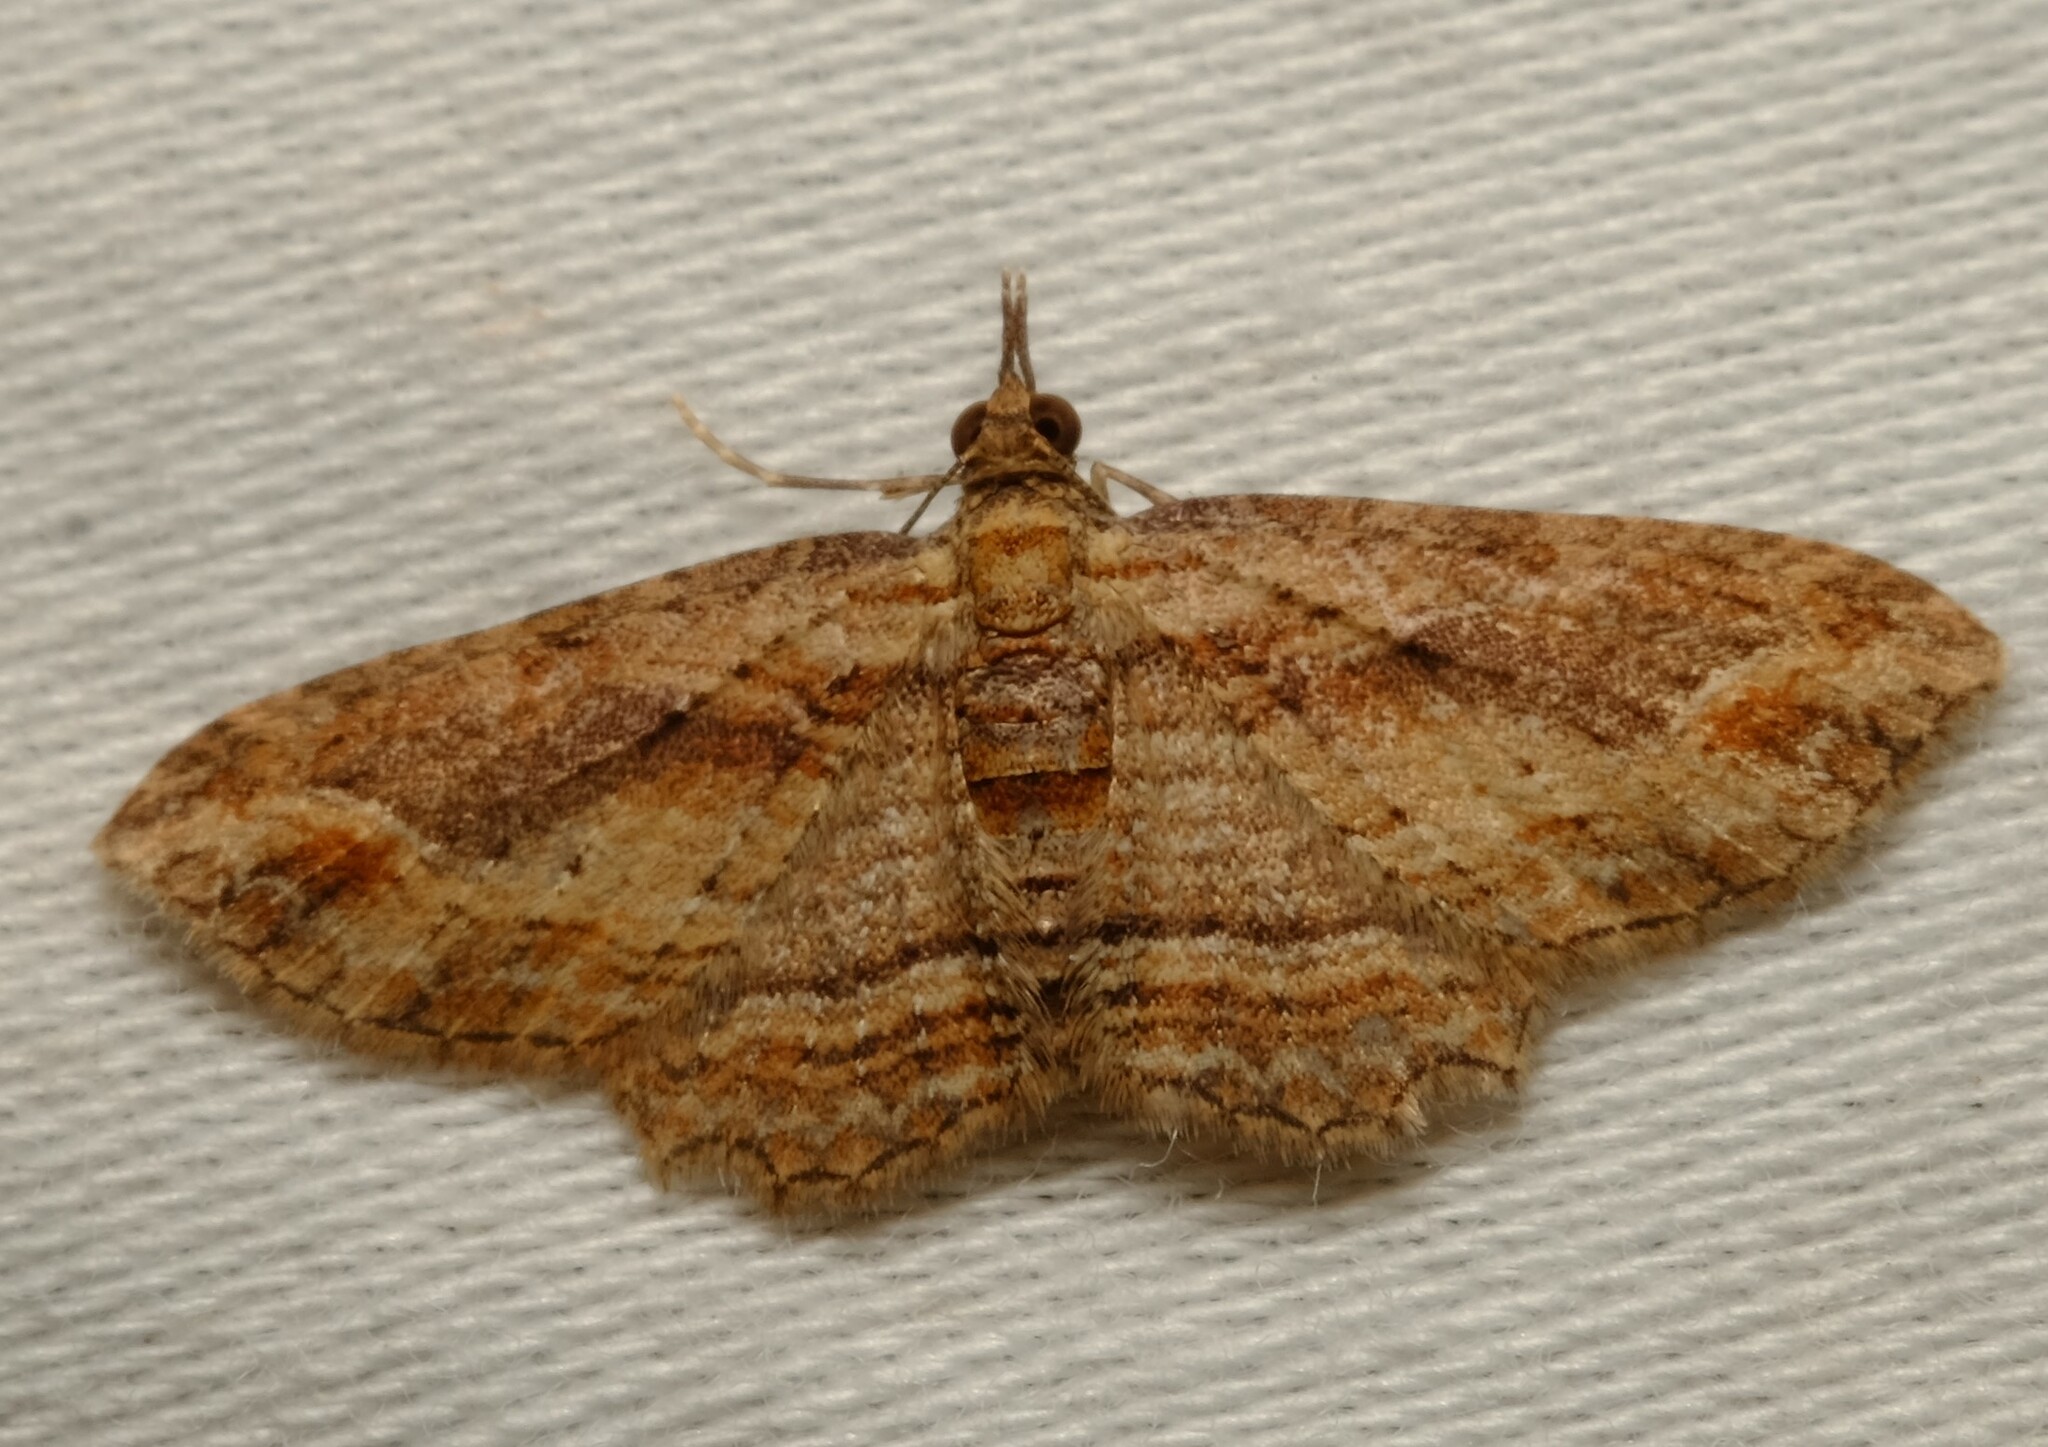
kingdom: Animalia
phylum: Arthropoda
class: Insecta
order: Lepidoptera
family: Geometridae
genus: Chloroclystis
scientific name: Chloroclystis filata
